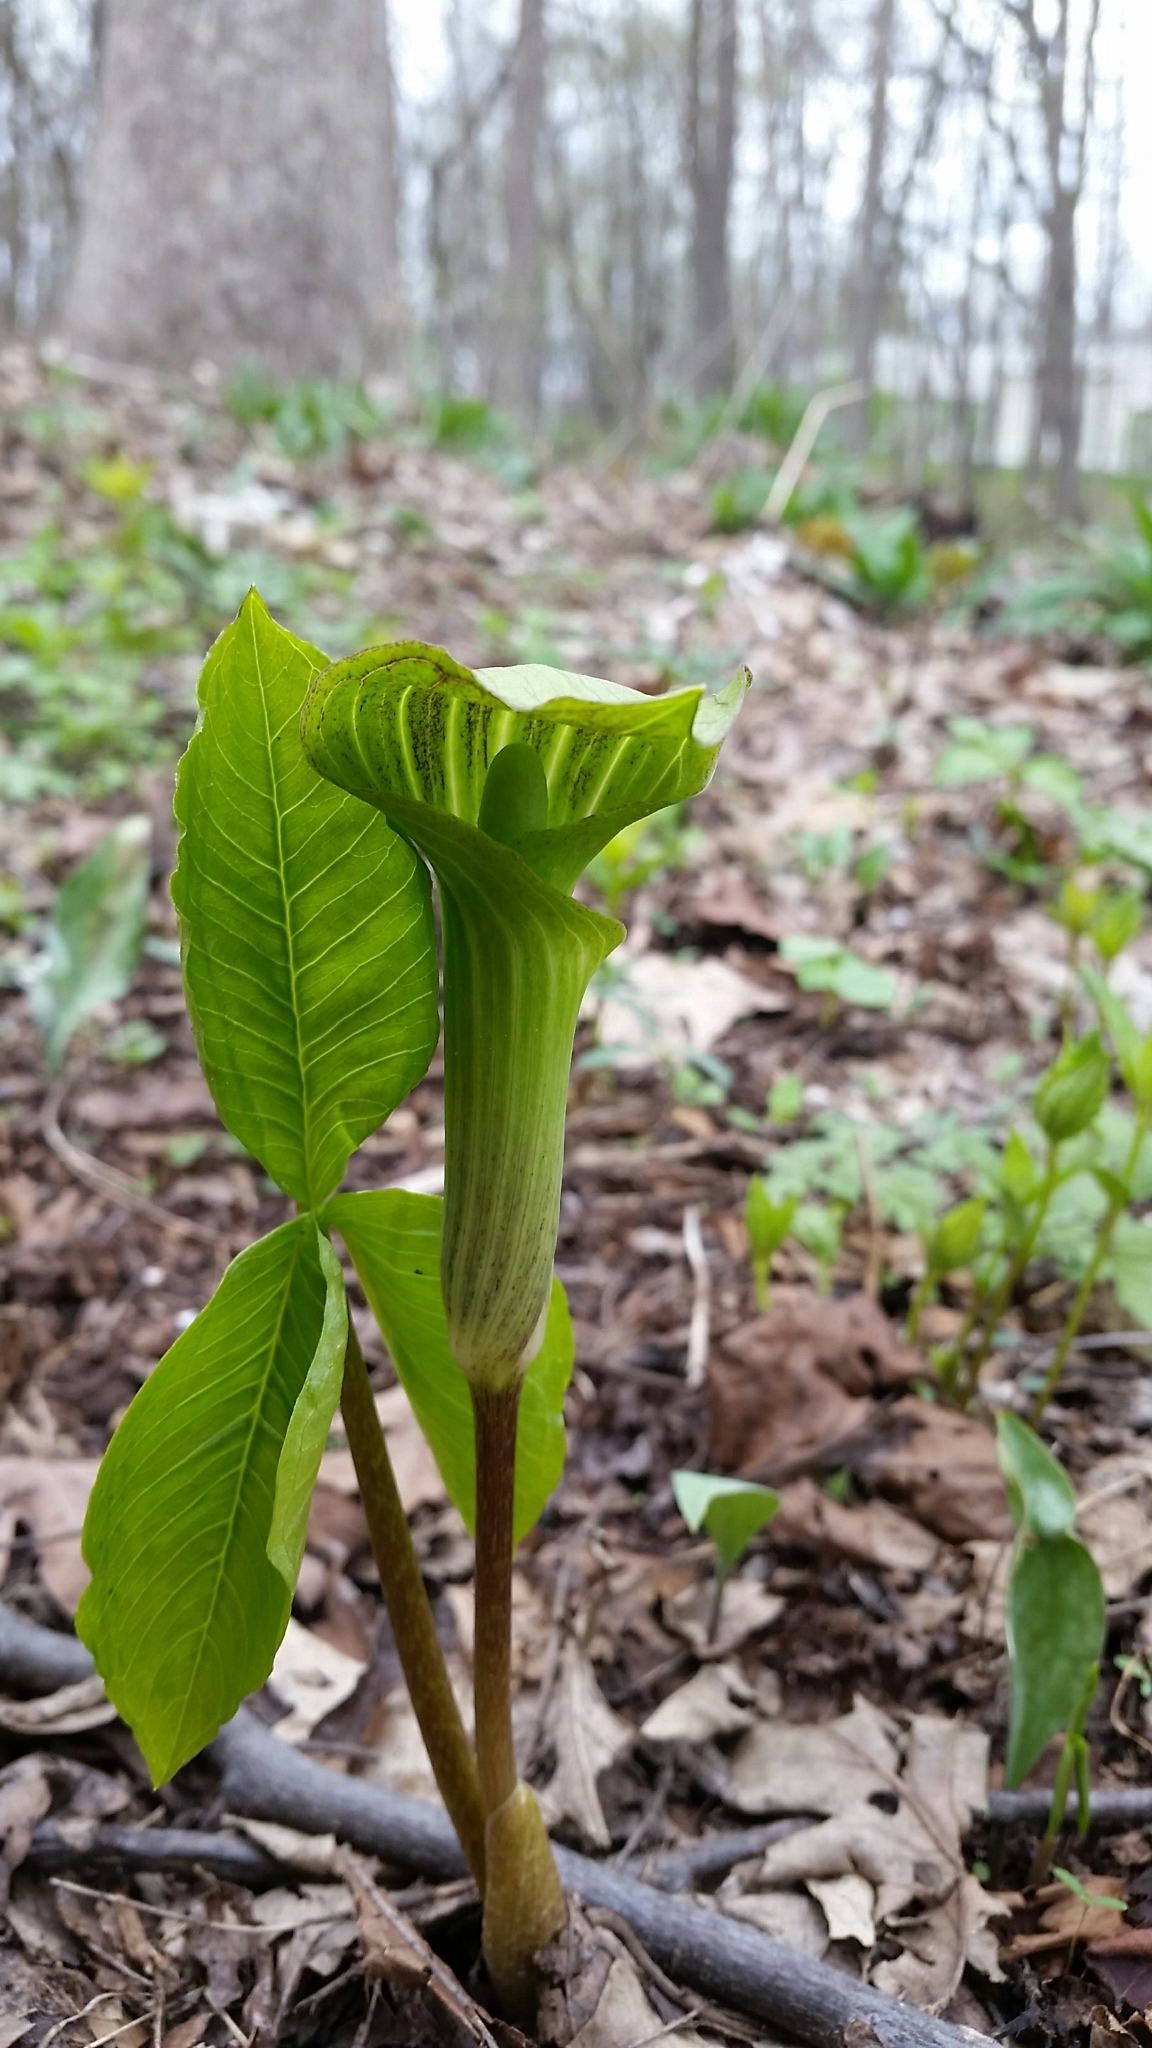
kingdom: Plantae
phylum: Tracheophyta
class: Liliopsida
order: Alismatales
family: Araceae
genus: Arisaema
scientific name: Arisaema triphyllum
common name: Jack-in-the-pulpit
